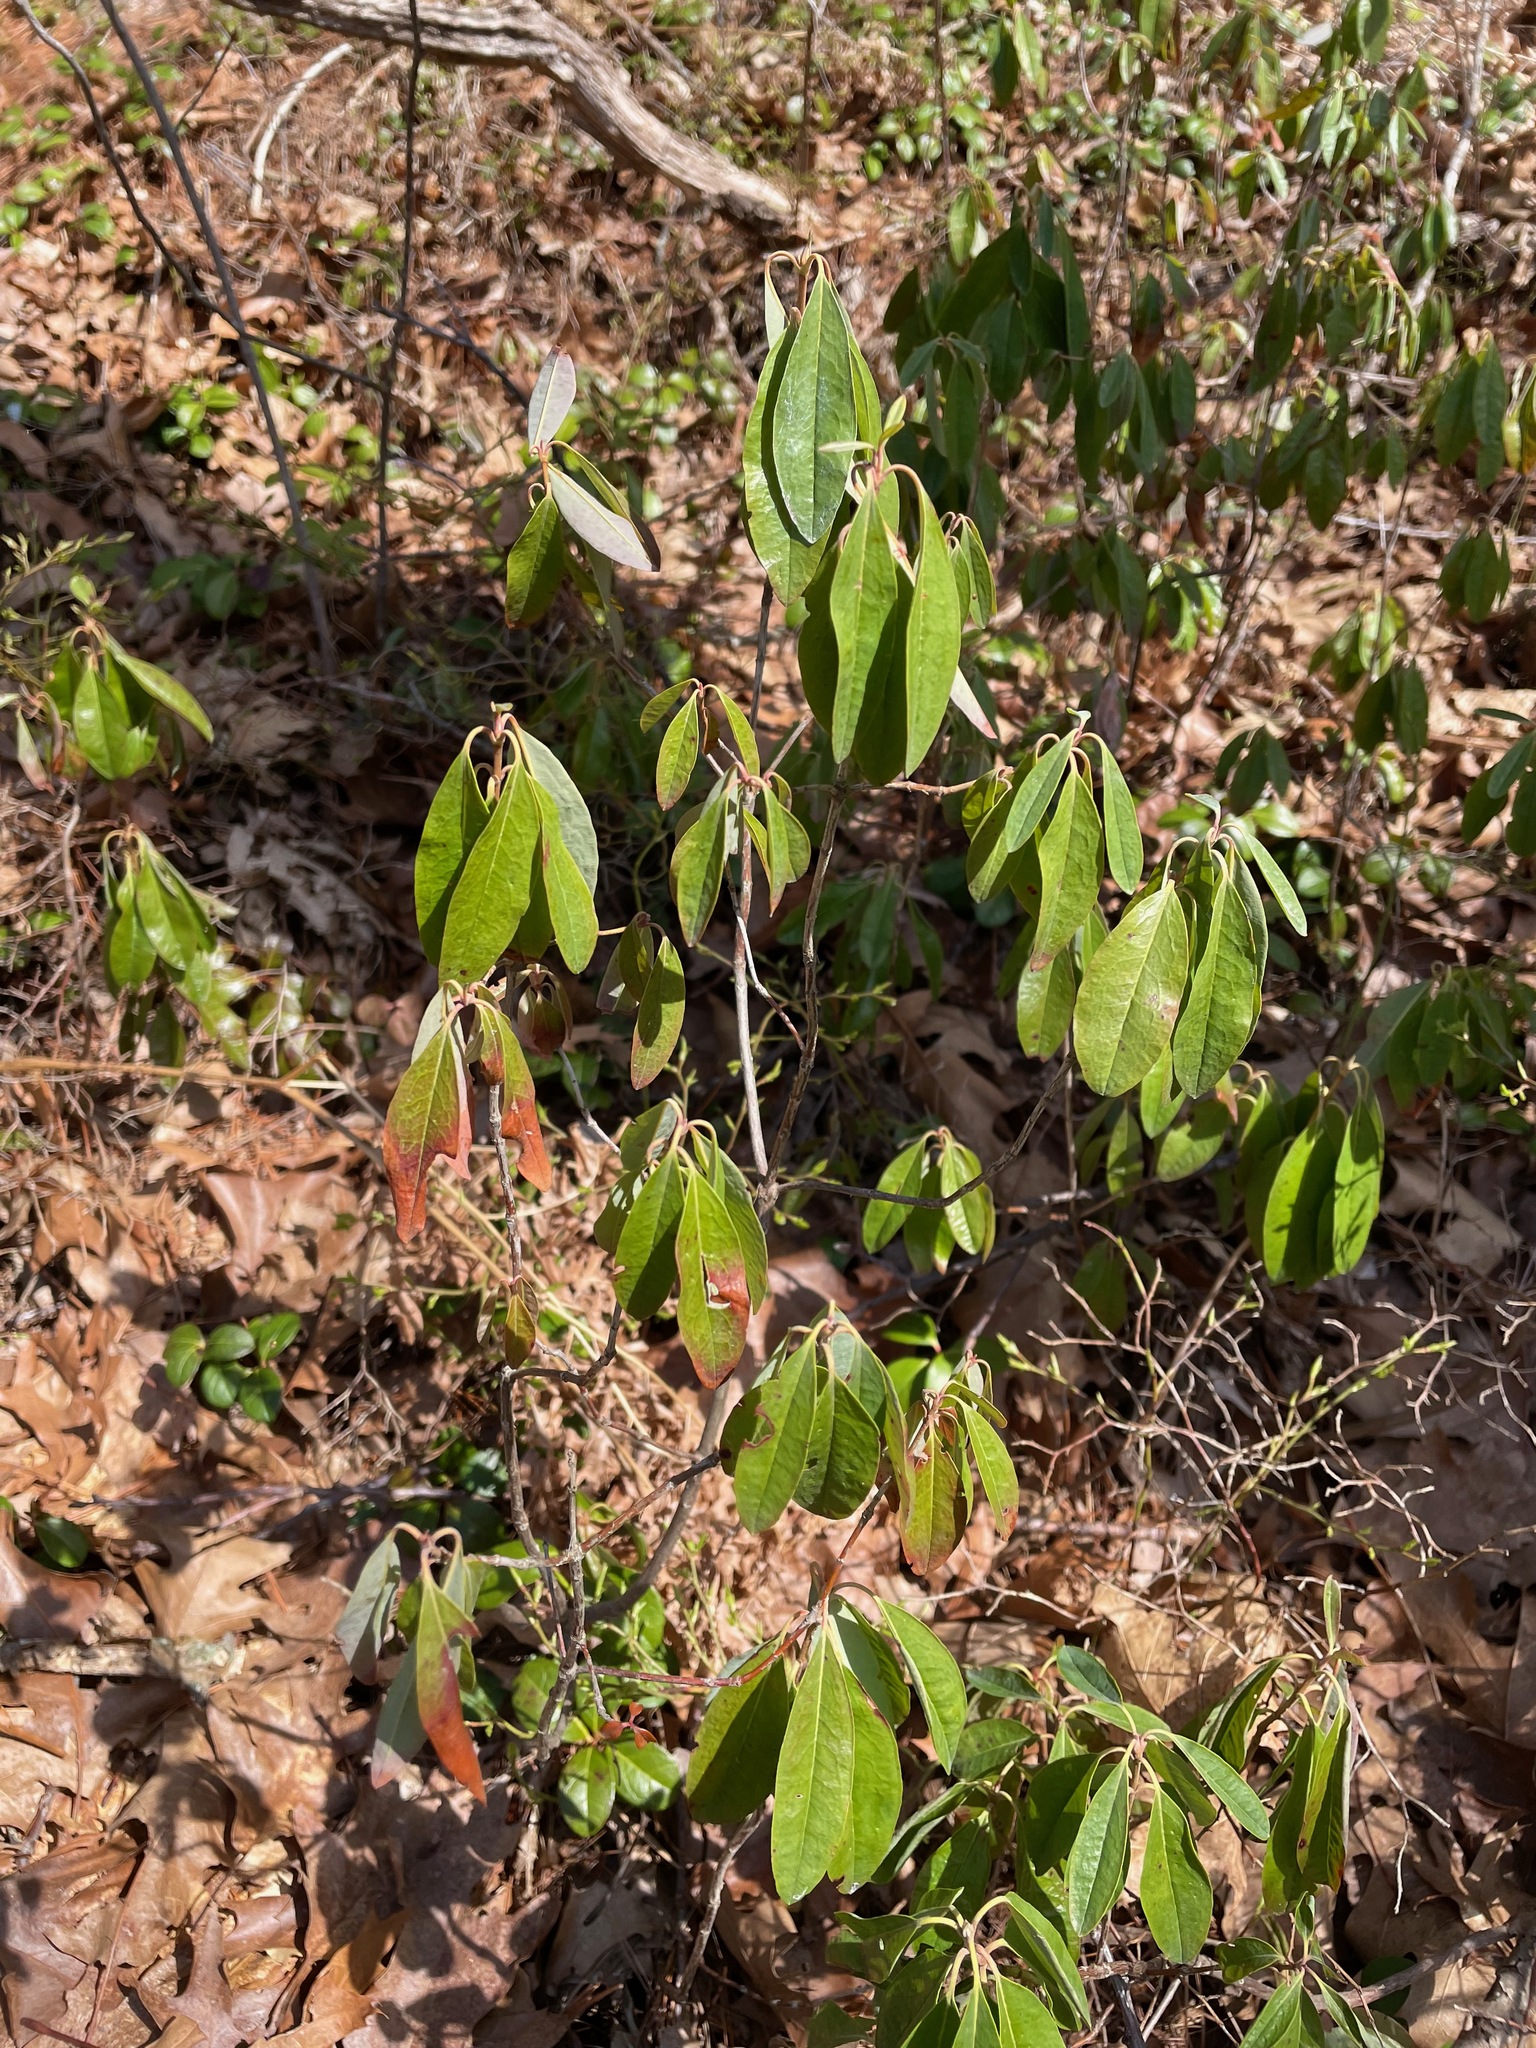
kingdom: Plantae
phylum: Tracheophyta
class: Magnoliopsida
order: Ericales
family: Ericaceae
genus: Kalmia
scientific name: Kalmia angustifolia
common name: Sheep-laurel
